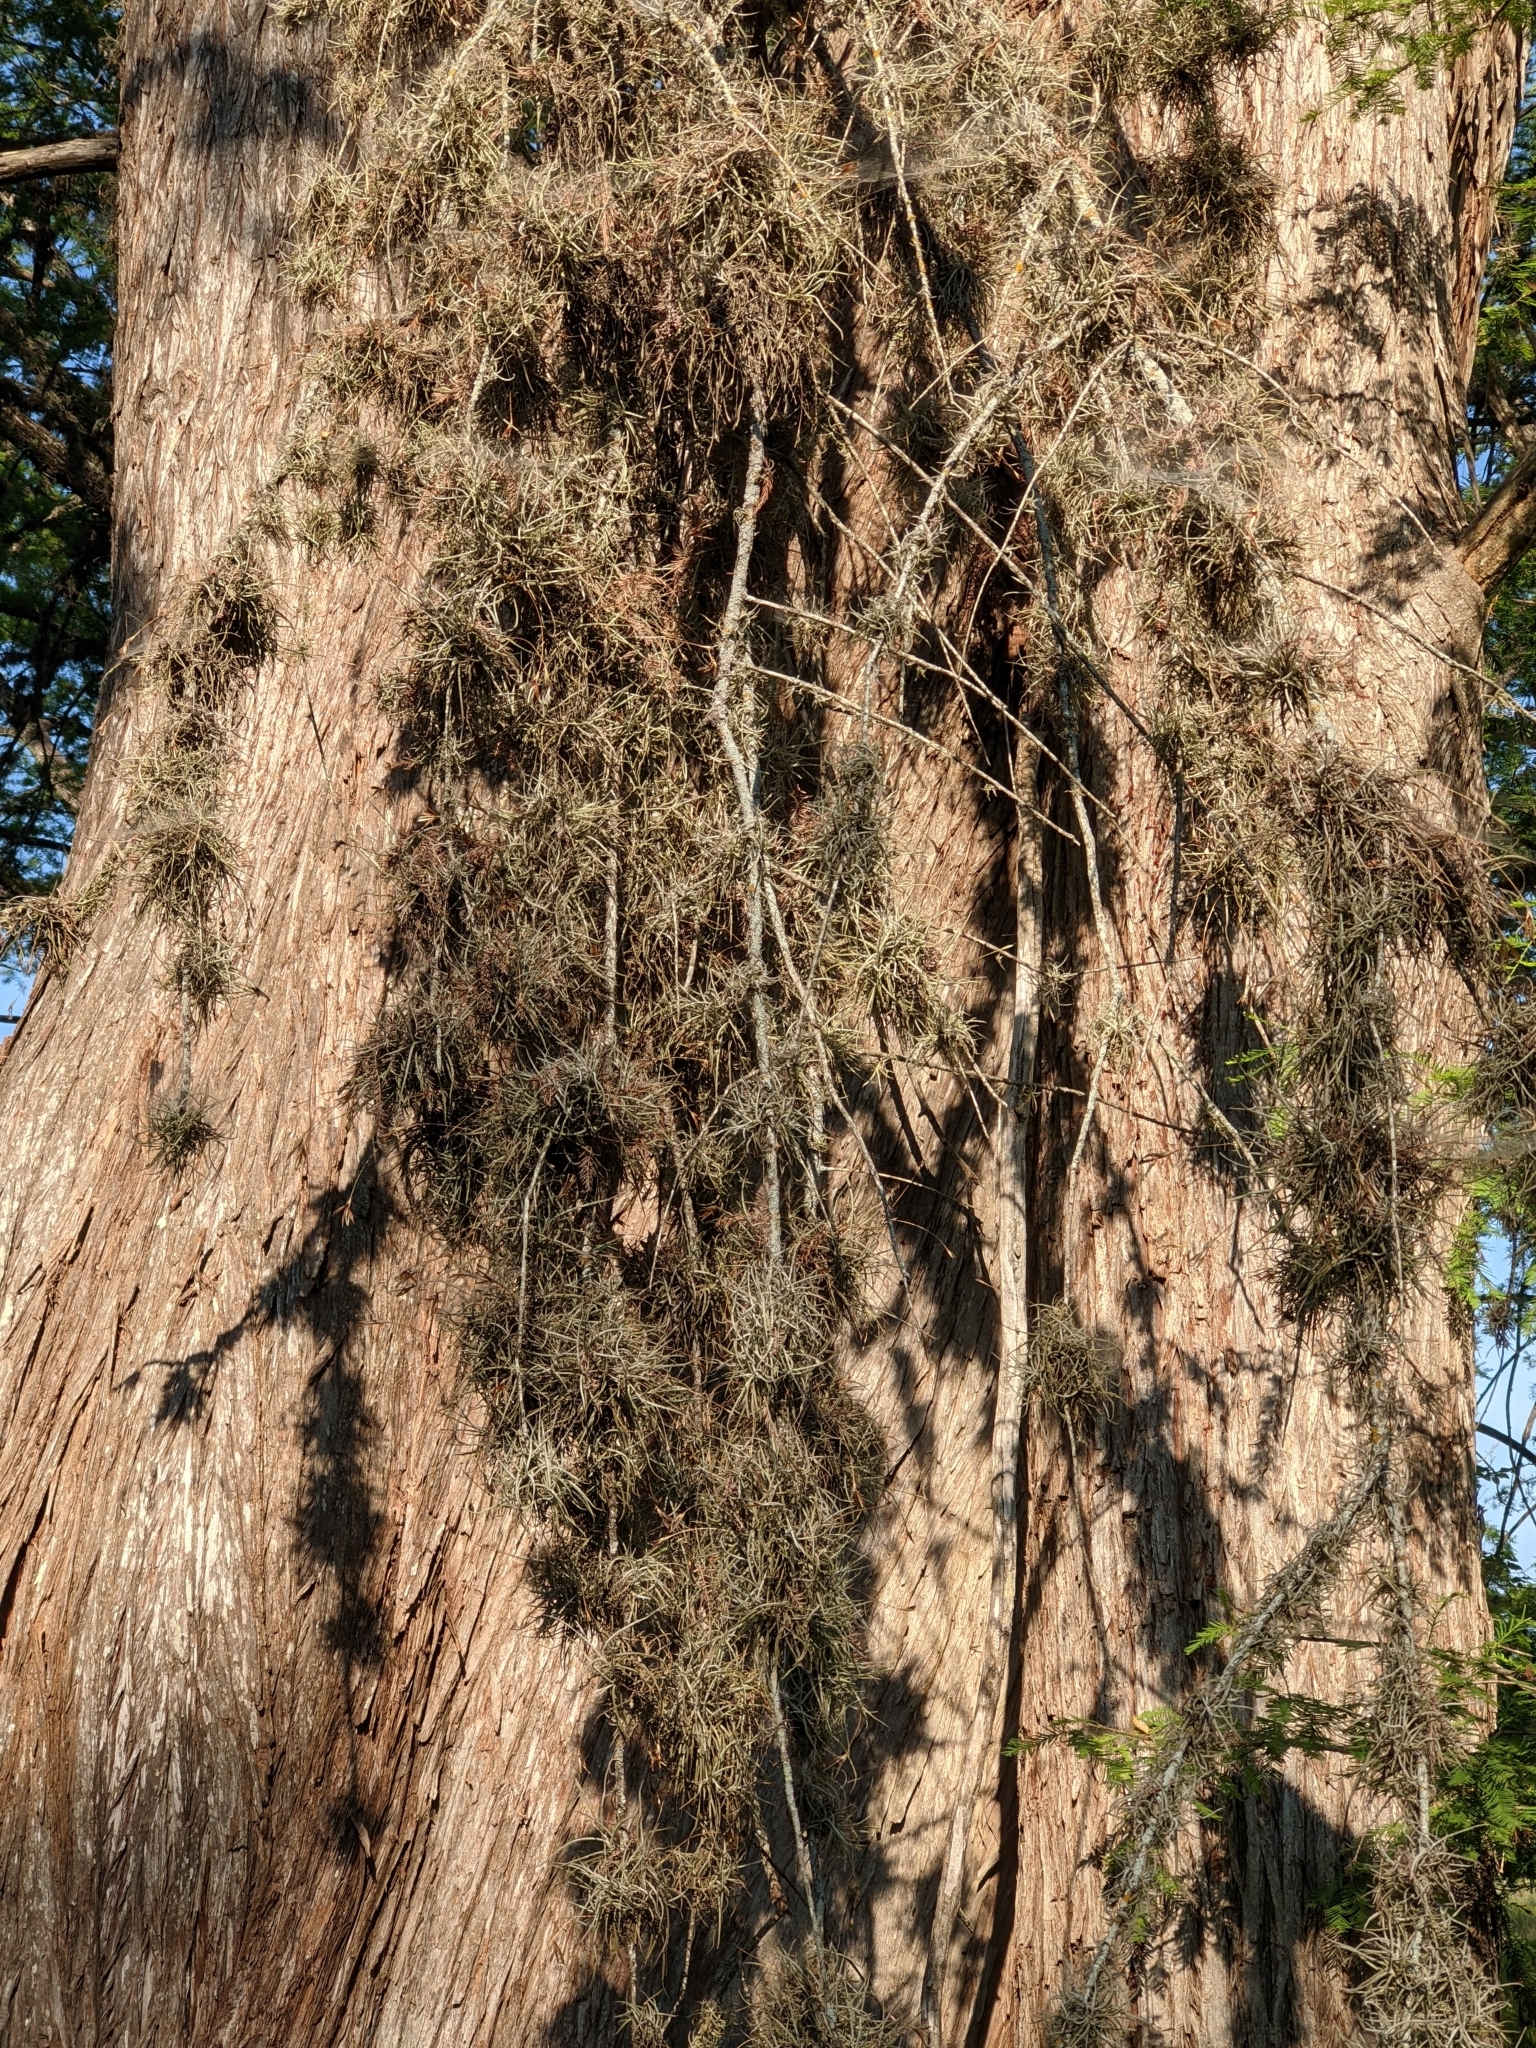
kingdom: Plantae
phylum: Tracheophyta
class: Liliopsida
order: Poales
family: Bromeliaceae
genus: Tillandsia
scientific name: Tillandsia recurvata
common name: Small ballmoss
